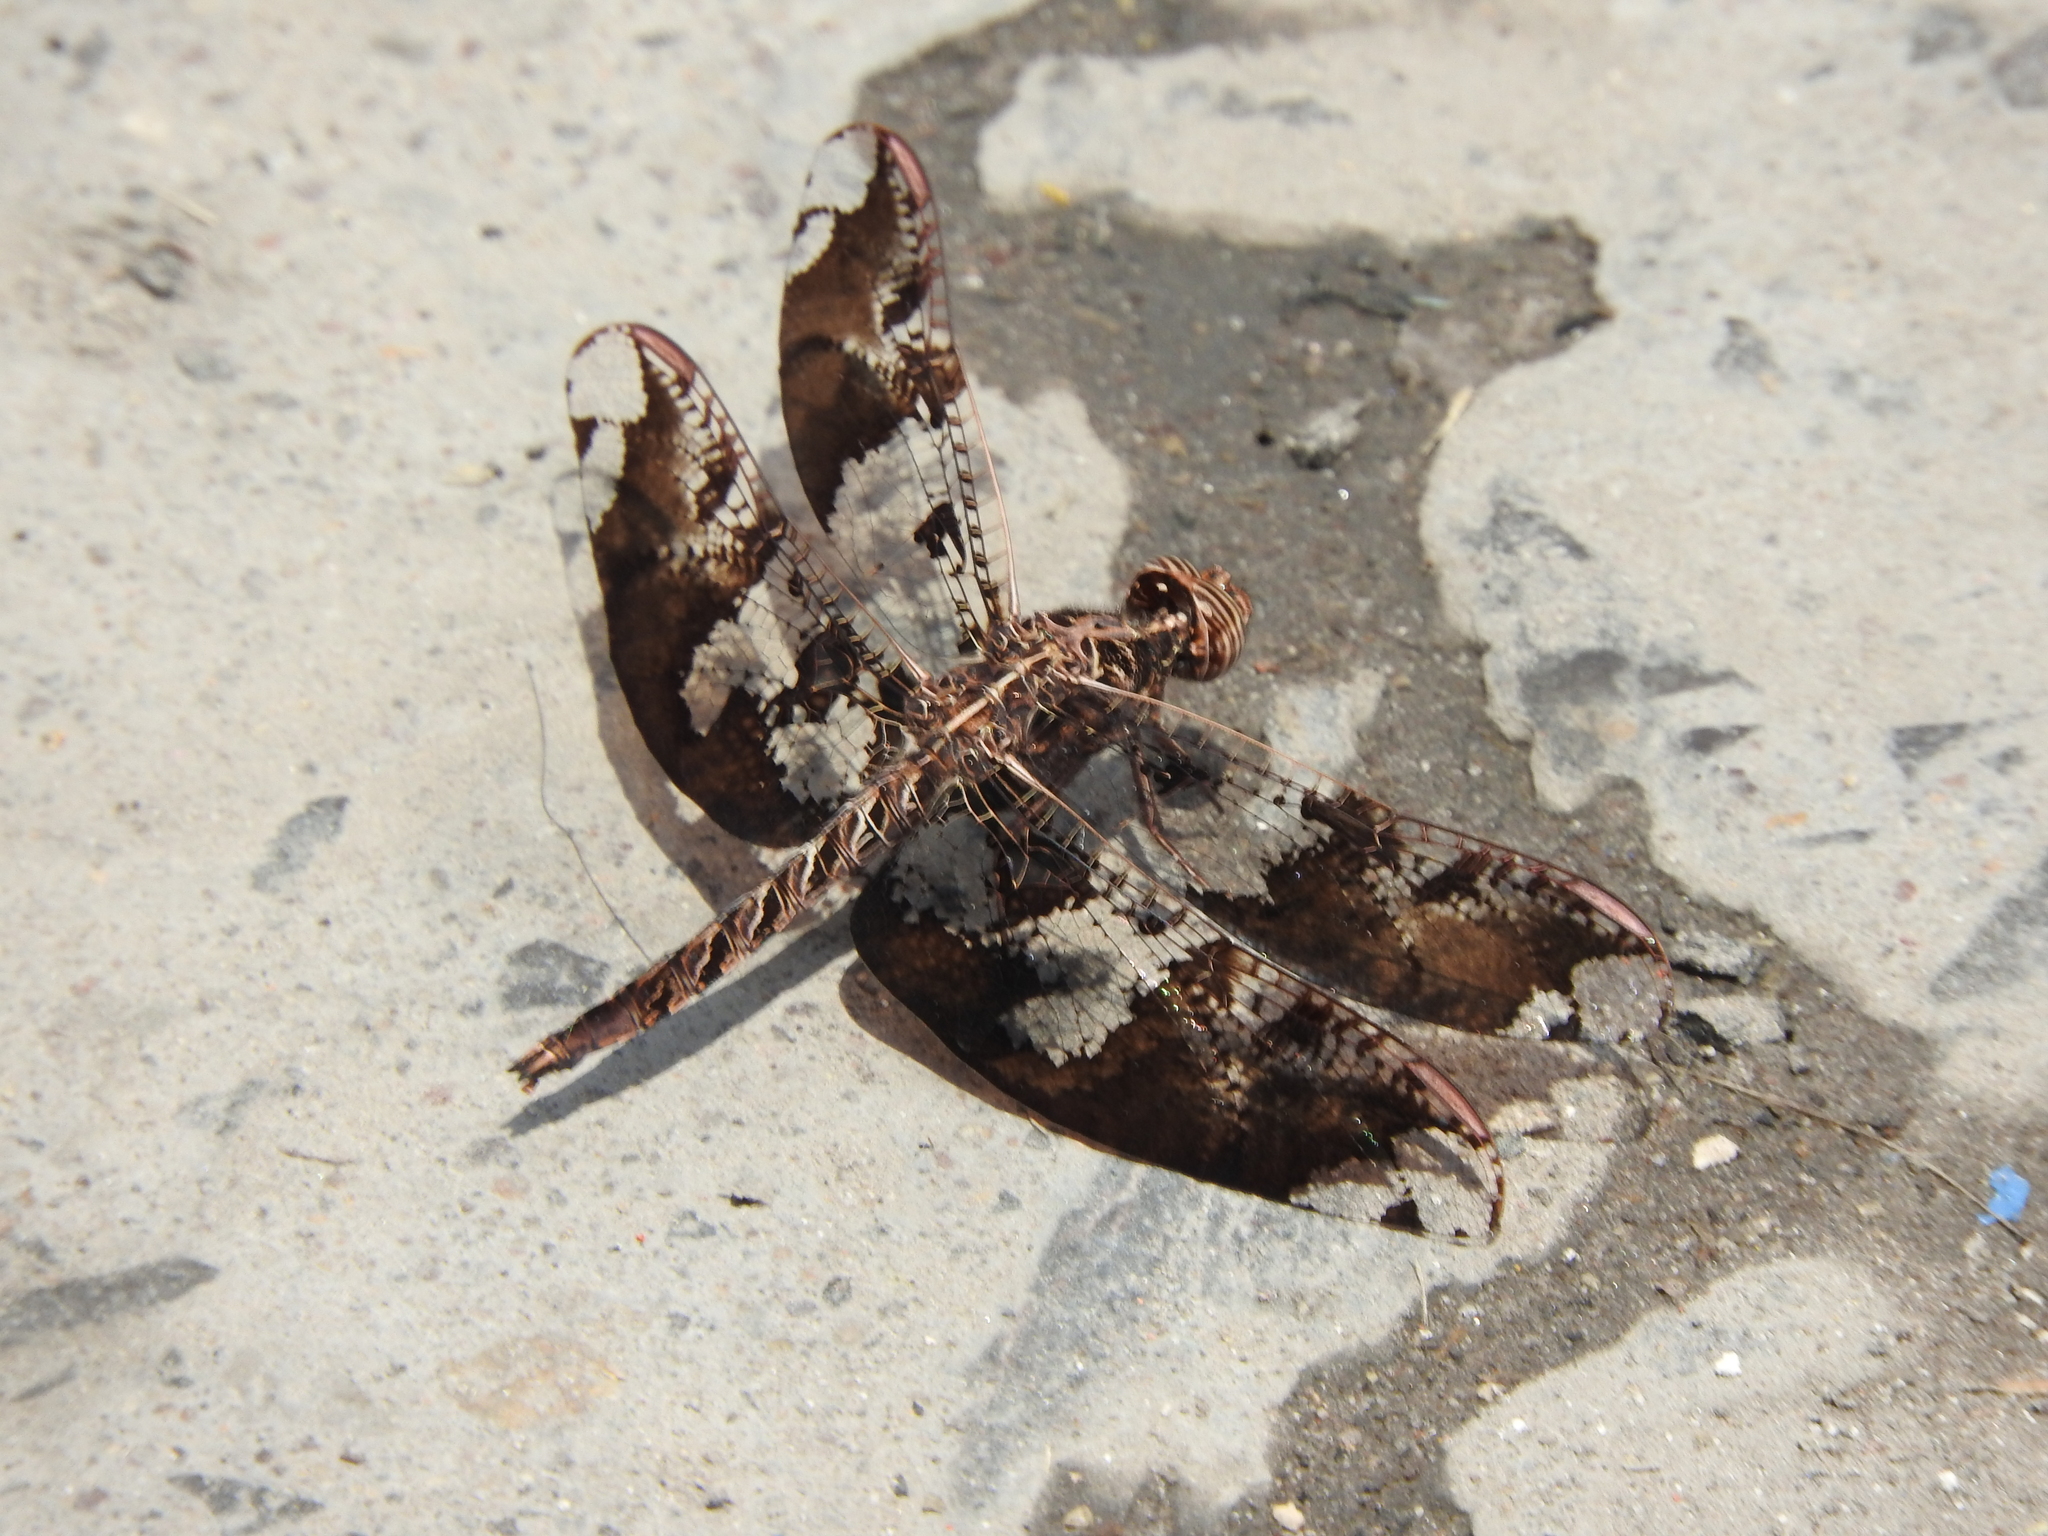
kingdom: Animalia
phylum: Arthropoda
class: Insecta
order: Odonata
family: Libellulidae
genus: Pseudoleon
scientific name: Pseudoleon superbus
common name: Filigree skimmer
